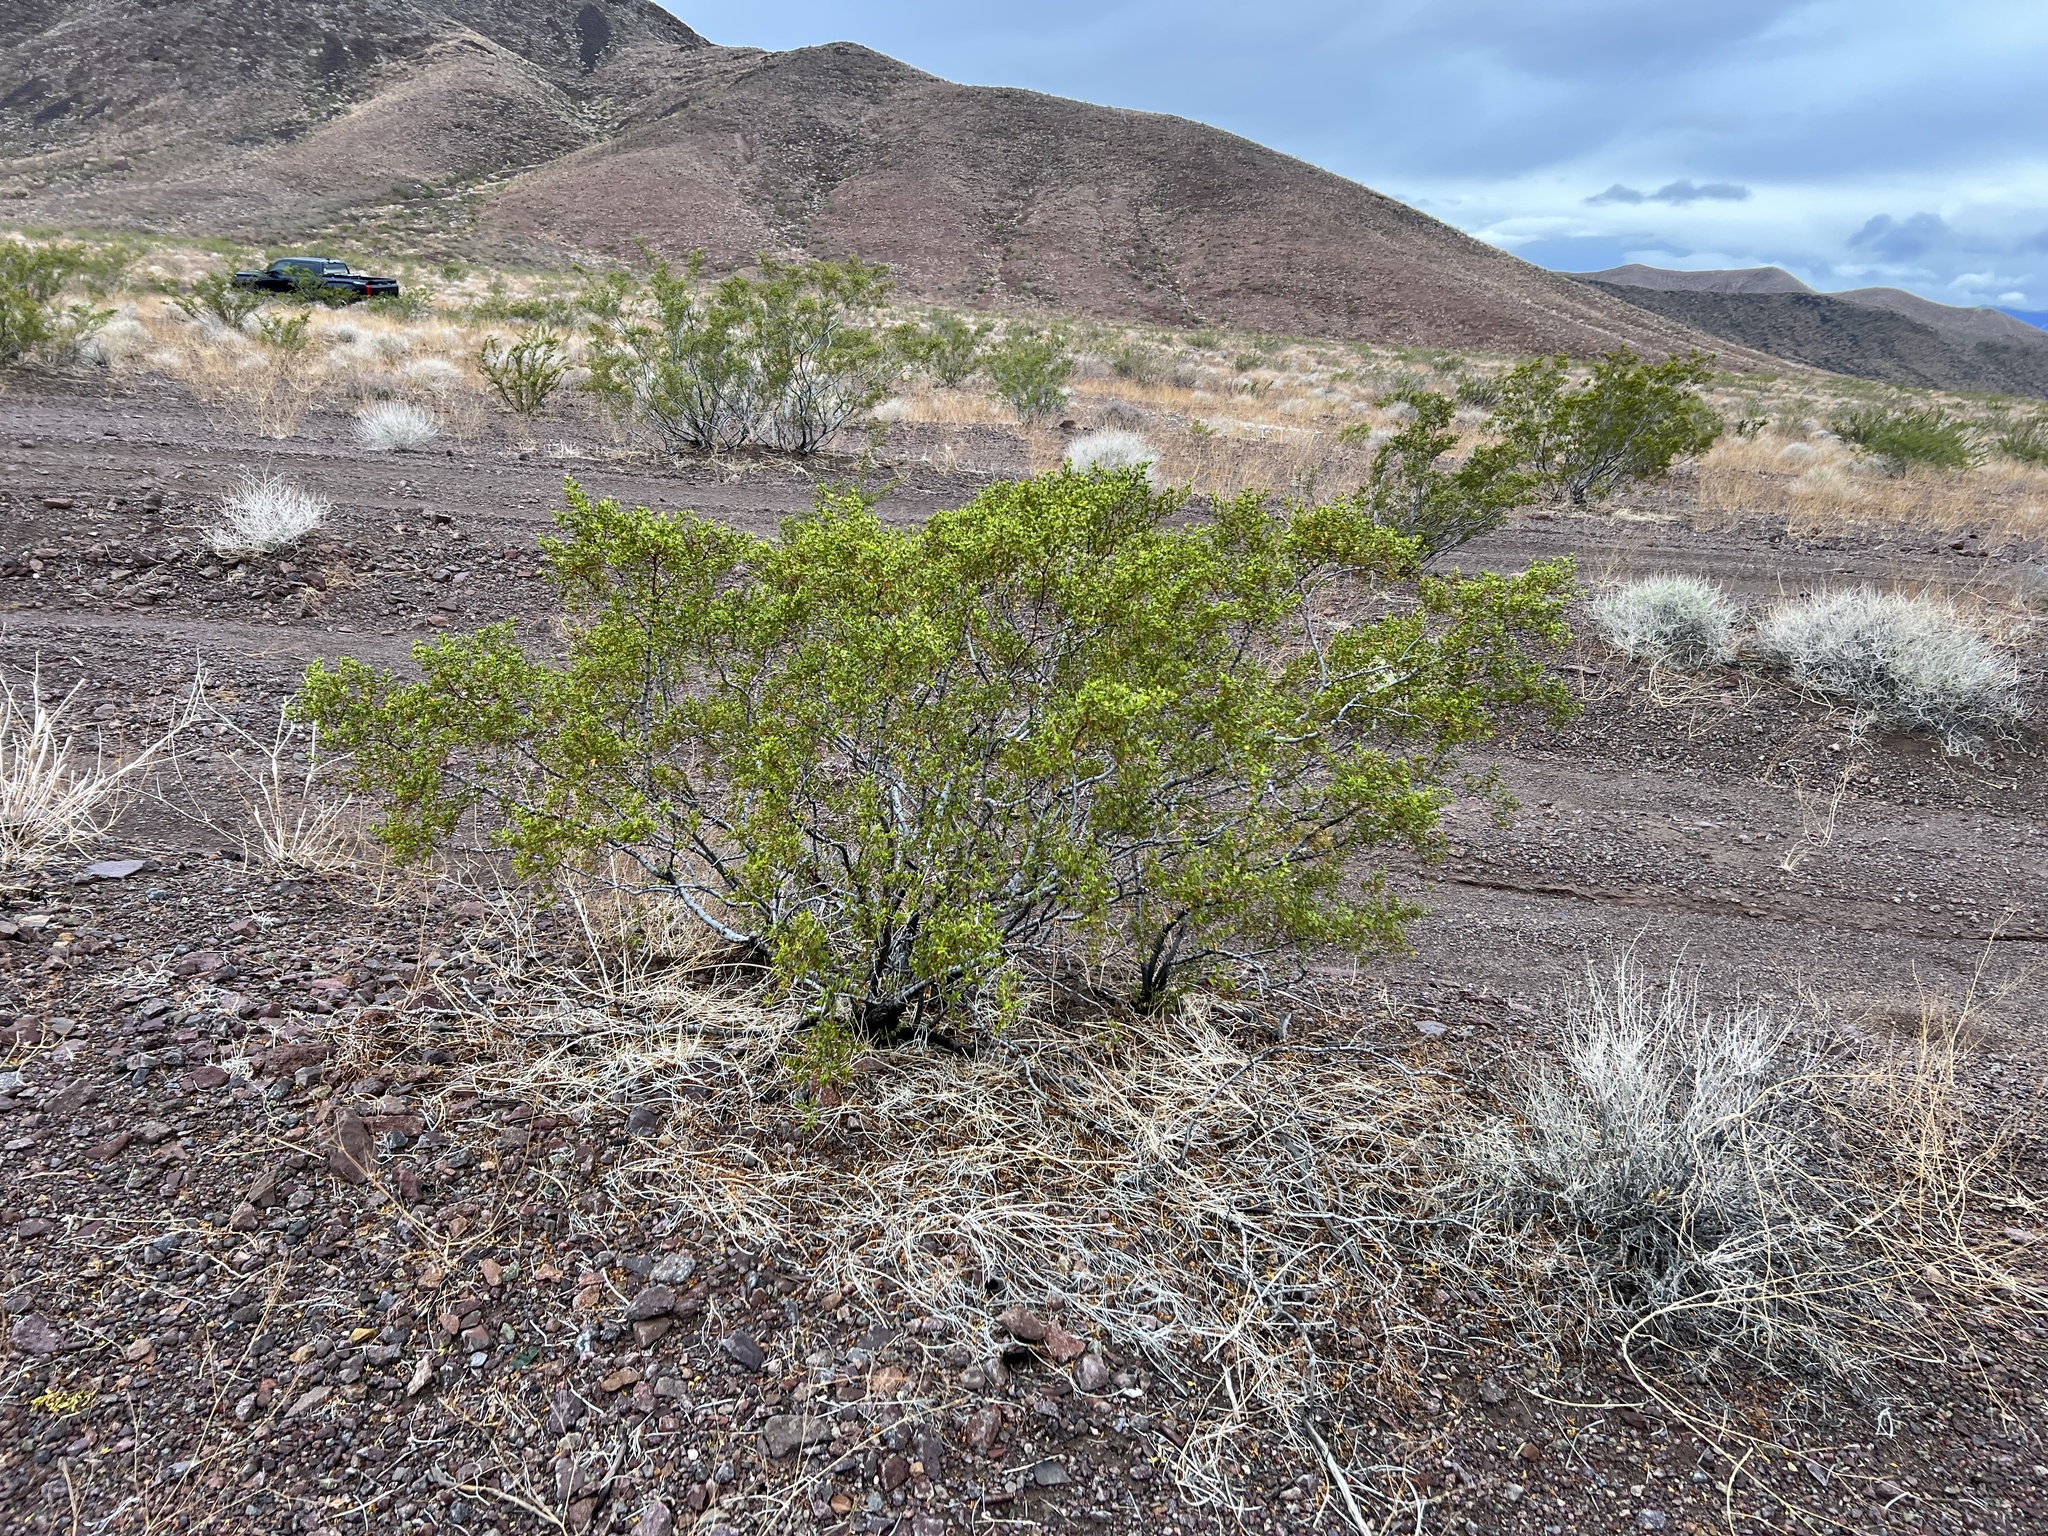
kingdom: Plantae
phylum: Tracheophyta
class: Magnoliopsida
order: Zygophyllales
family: Zygophyllaceae
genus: Larrea
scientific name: Larrea tridentata
